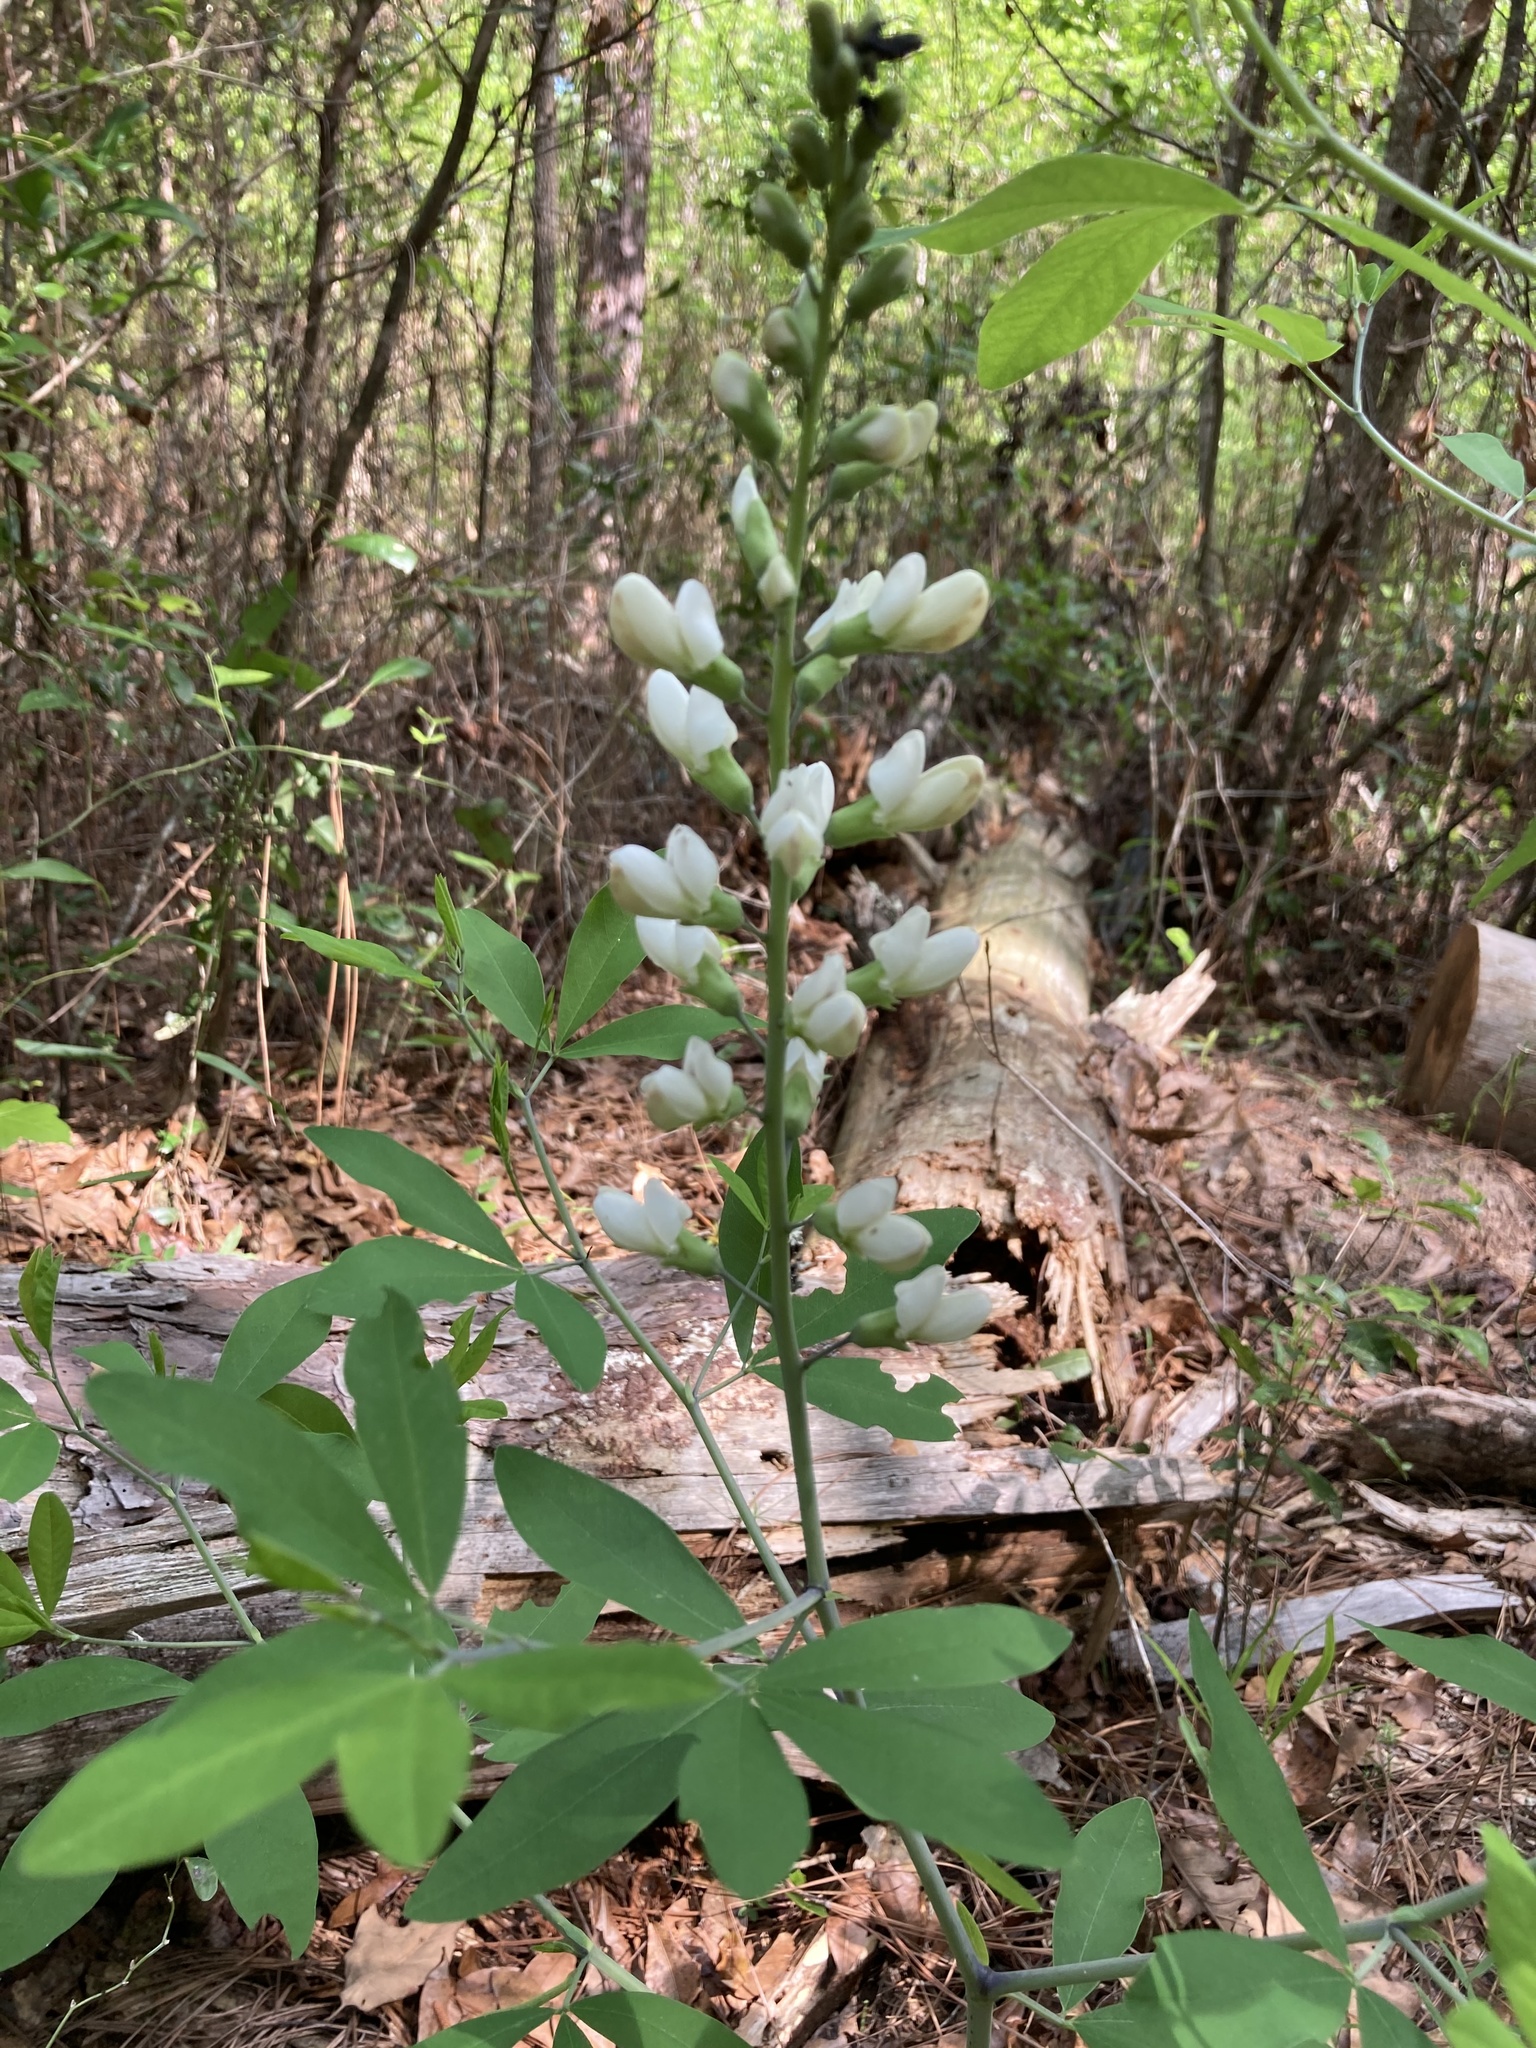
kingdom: Plantae
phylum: Tracheophyta
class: Magnoliopsida
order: Fabales
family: Fabaceae
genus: Baptisia
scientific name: Baptisia alba
